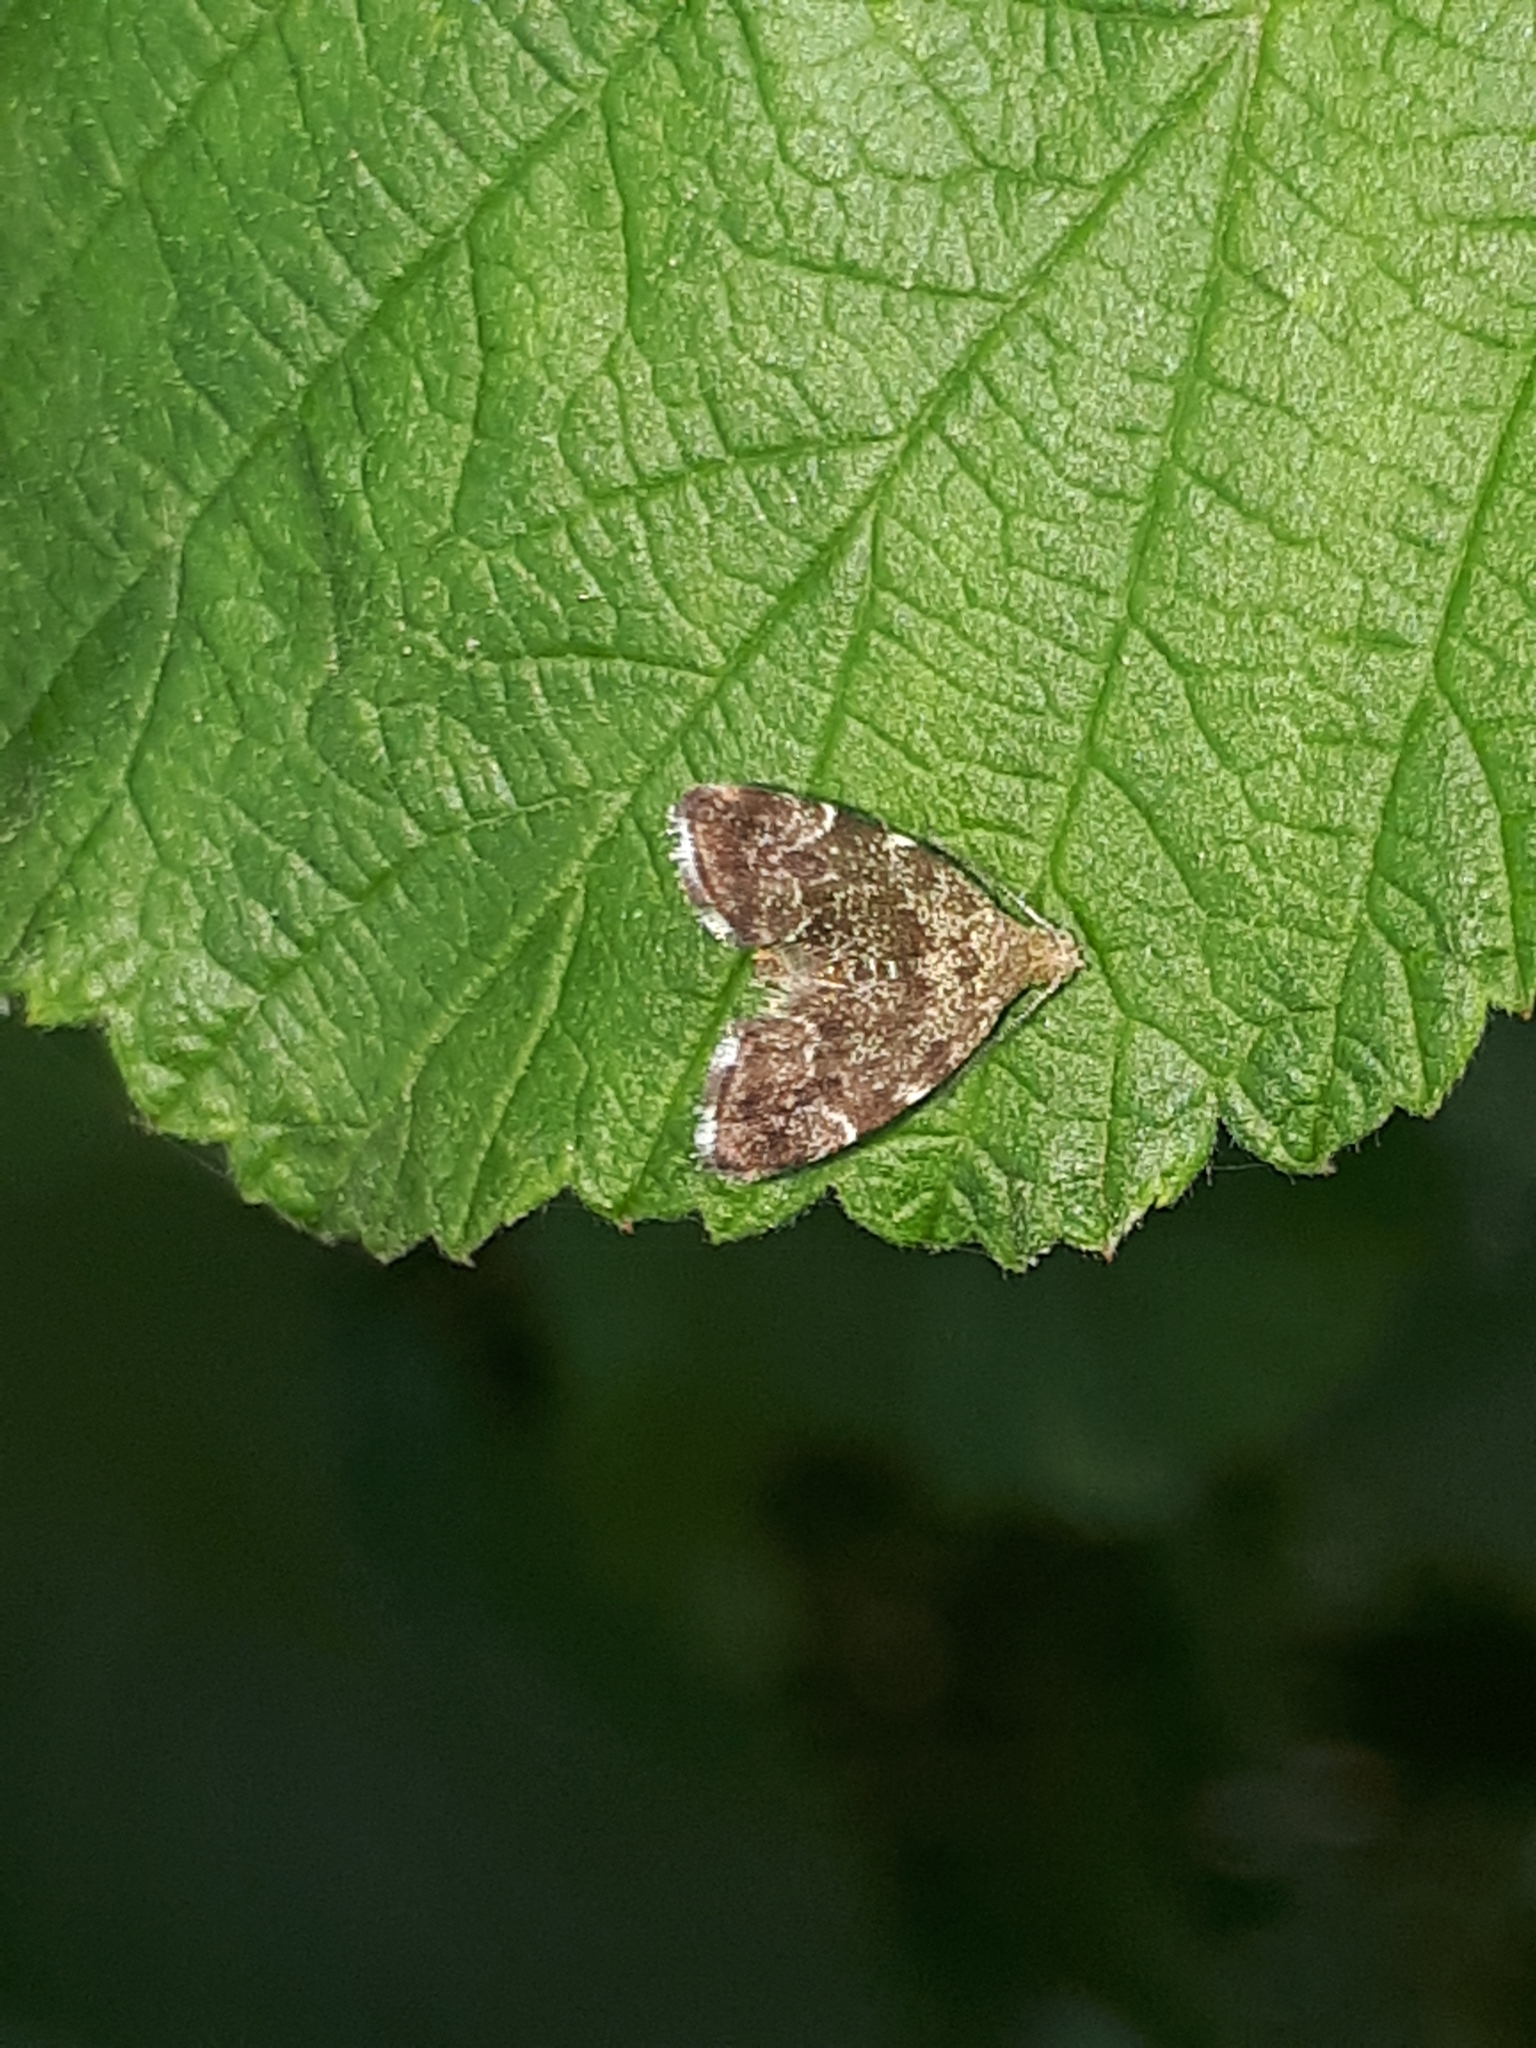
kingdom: Animalia
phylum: Arthropoda
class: Insecta
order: Lepidoptera
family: Choreutidae
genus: Anthophila
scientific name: Anthophila fabriciana
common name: Nettle-tap
